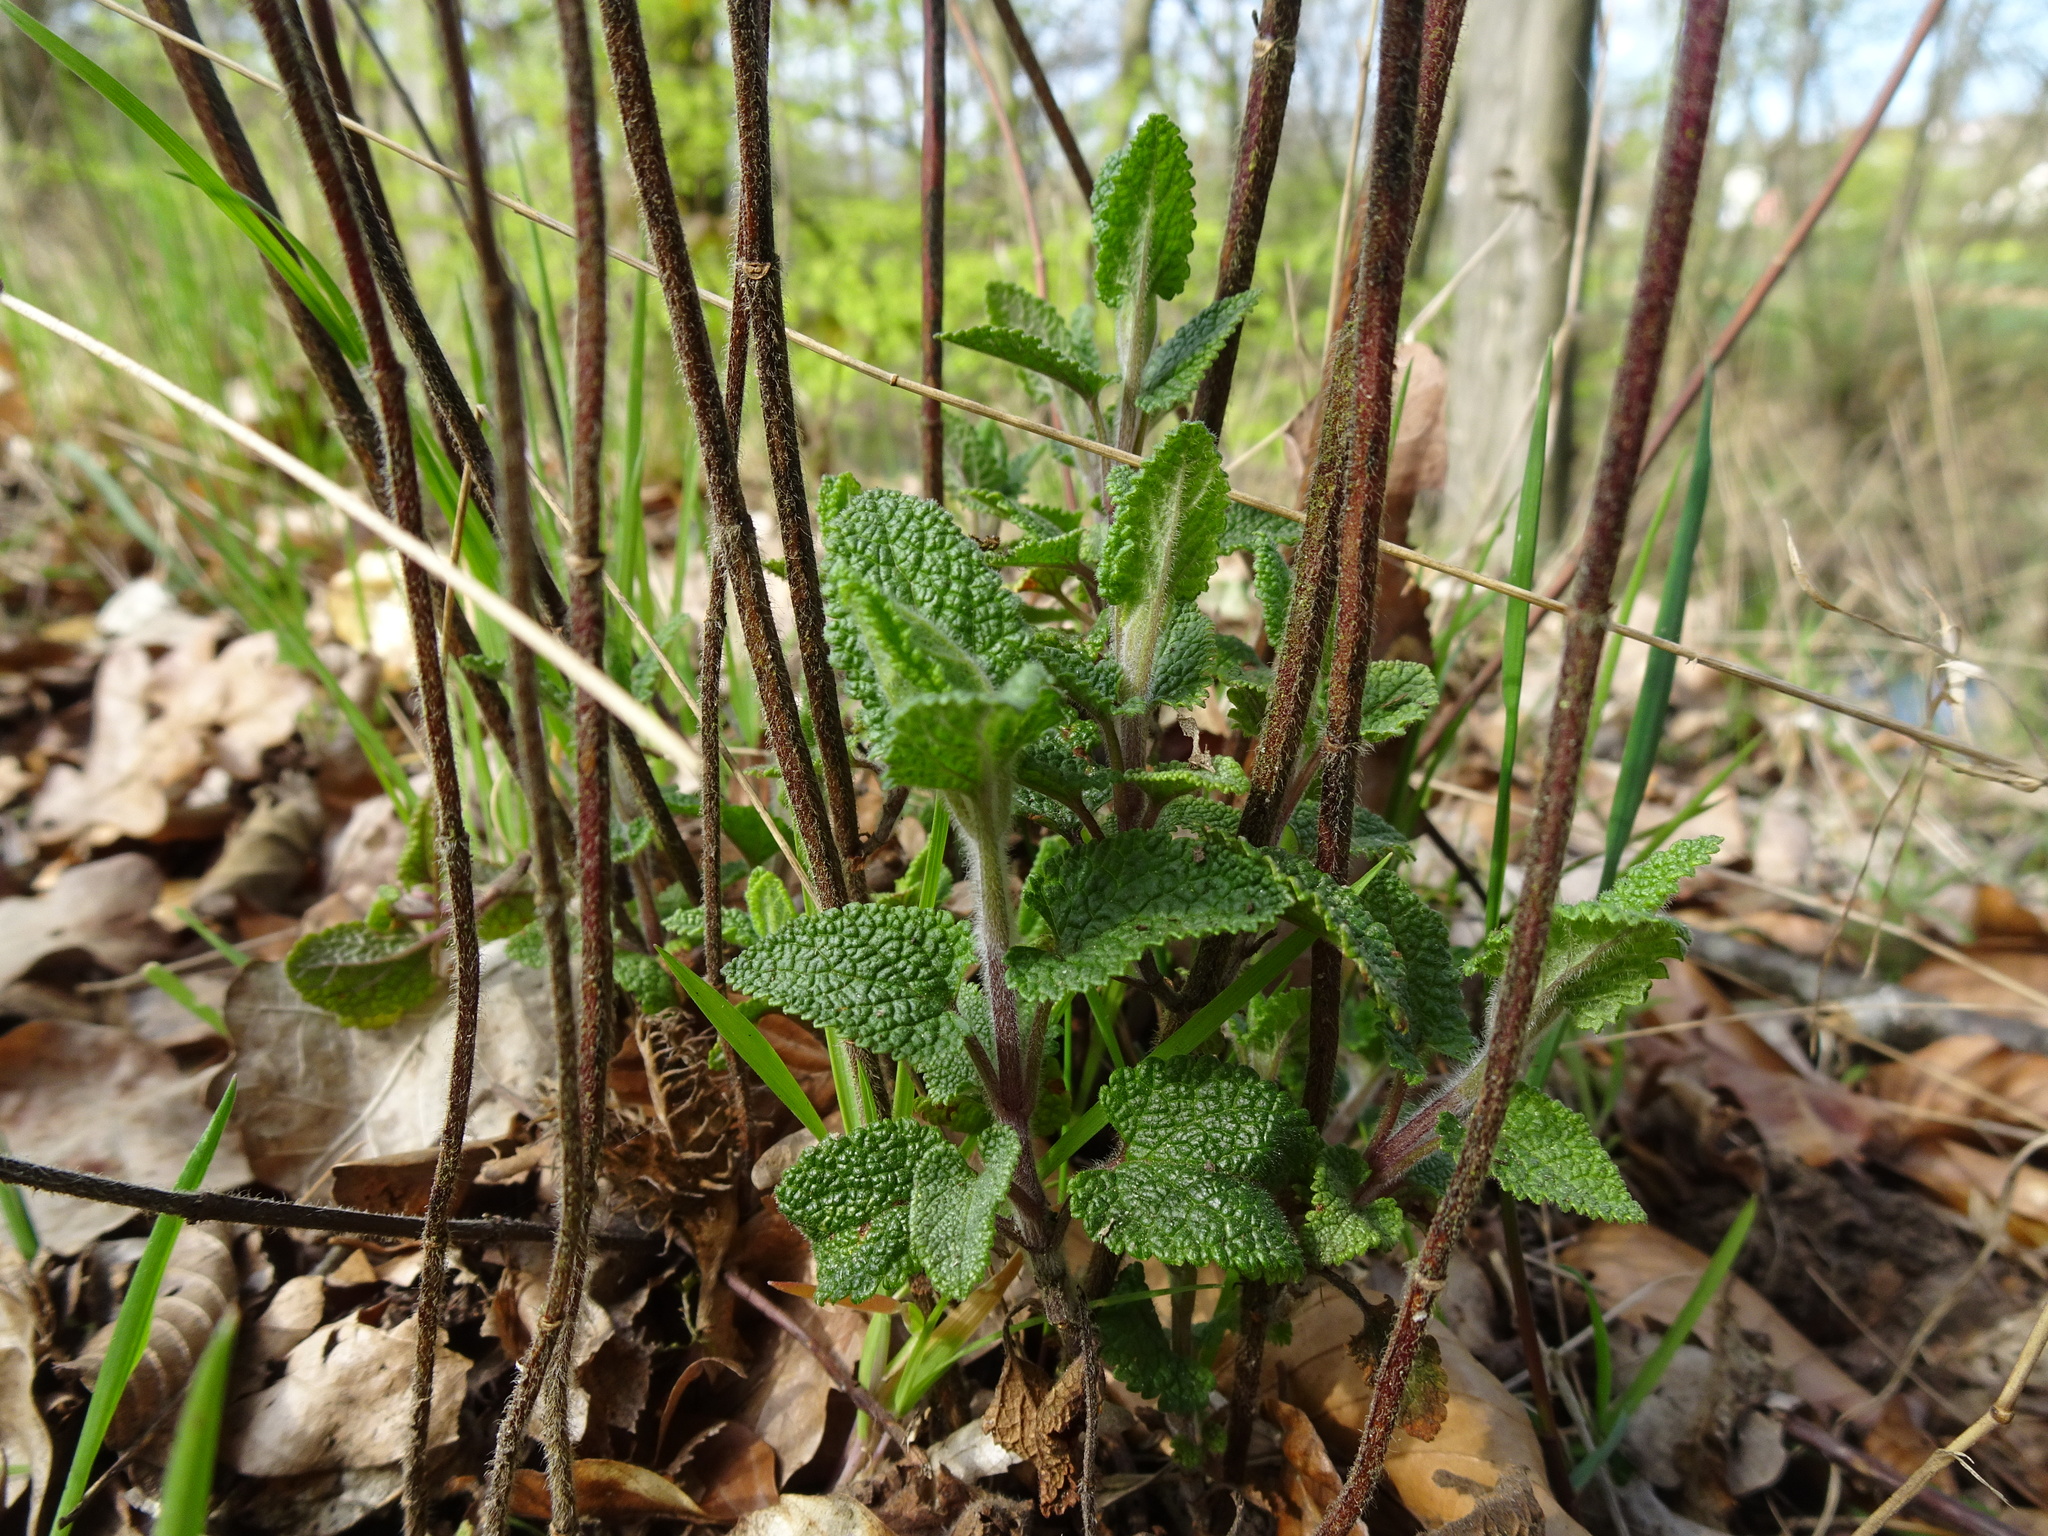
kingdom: Plantae
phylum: Tracheophyta
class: Magnoliopsida
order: Lamiales
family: Lamiaceae
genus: Teucrium
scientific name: Teucrium scorodonia
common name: Woodland germander
